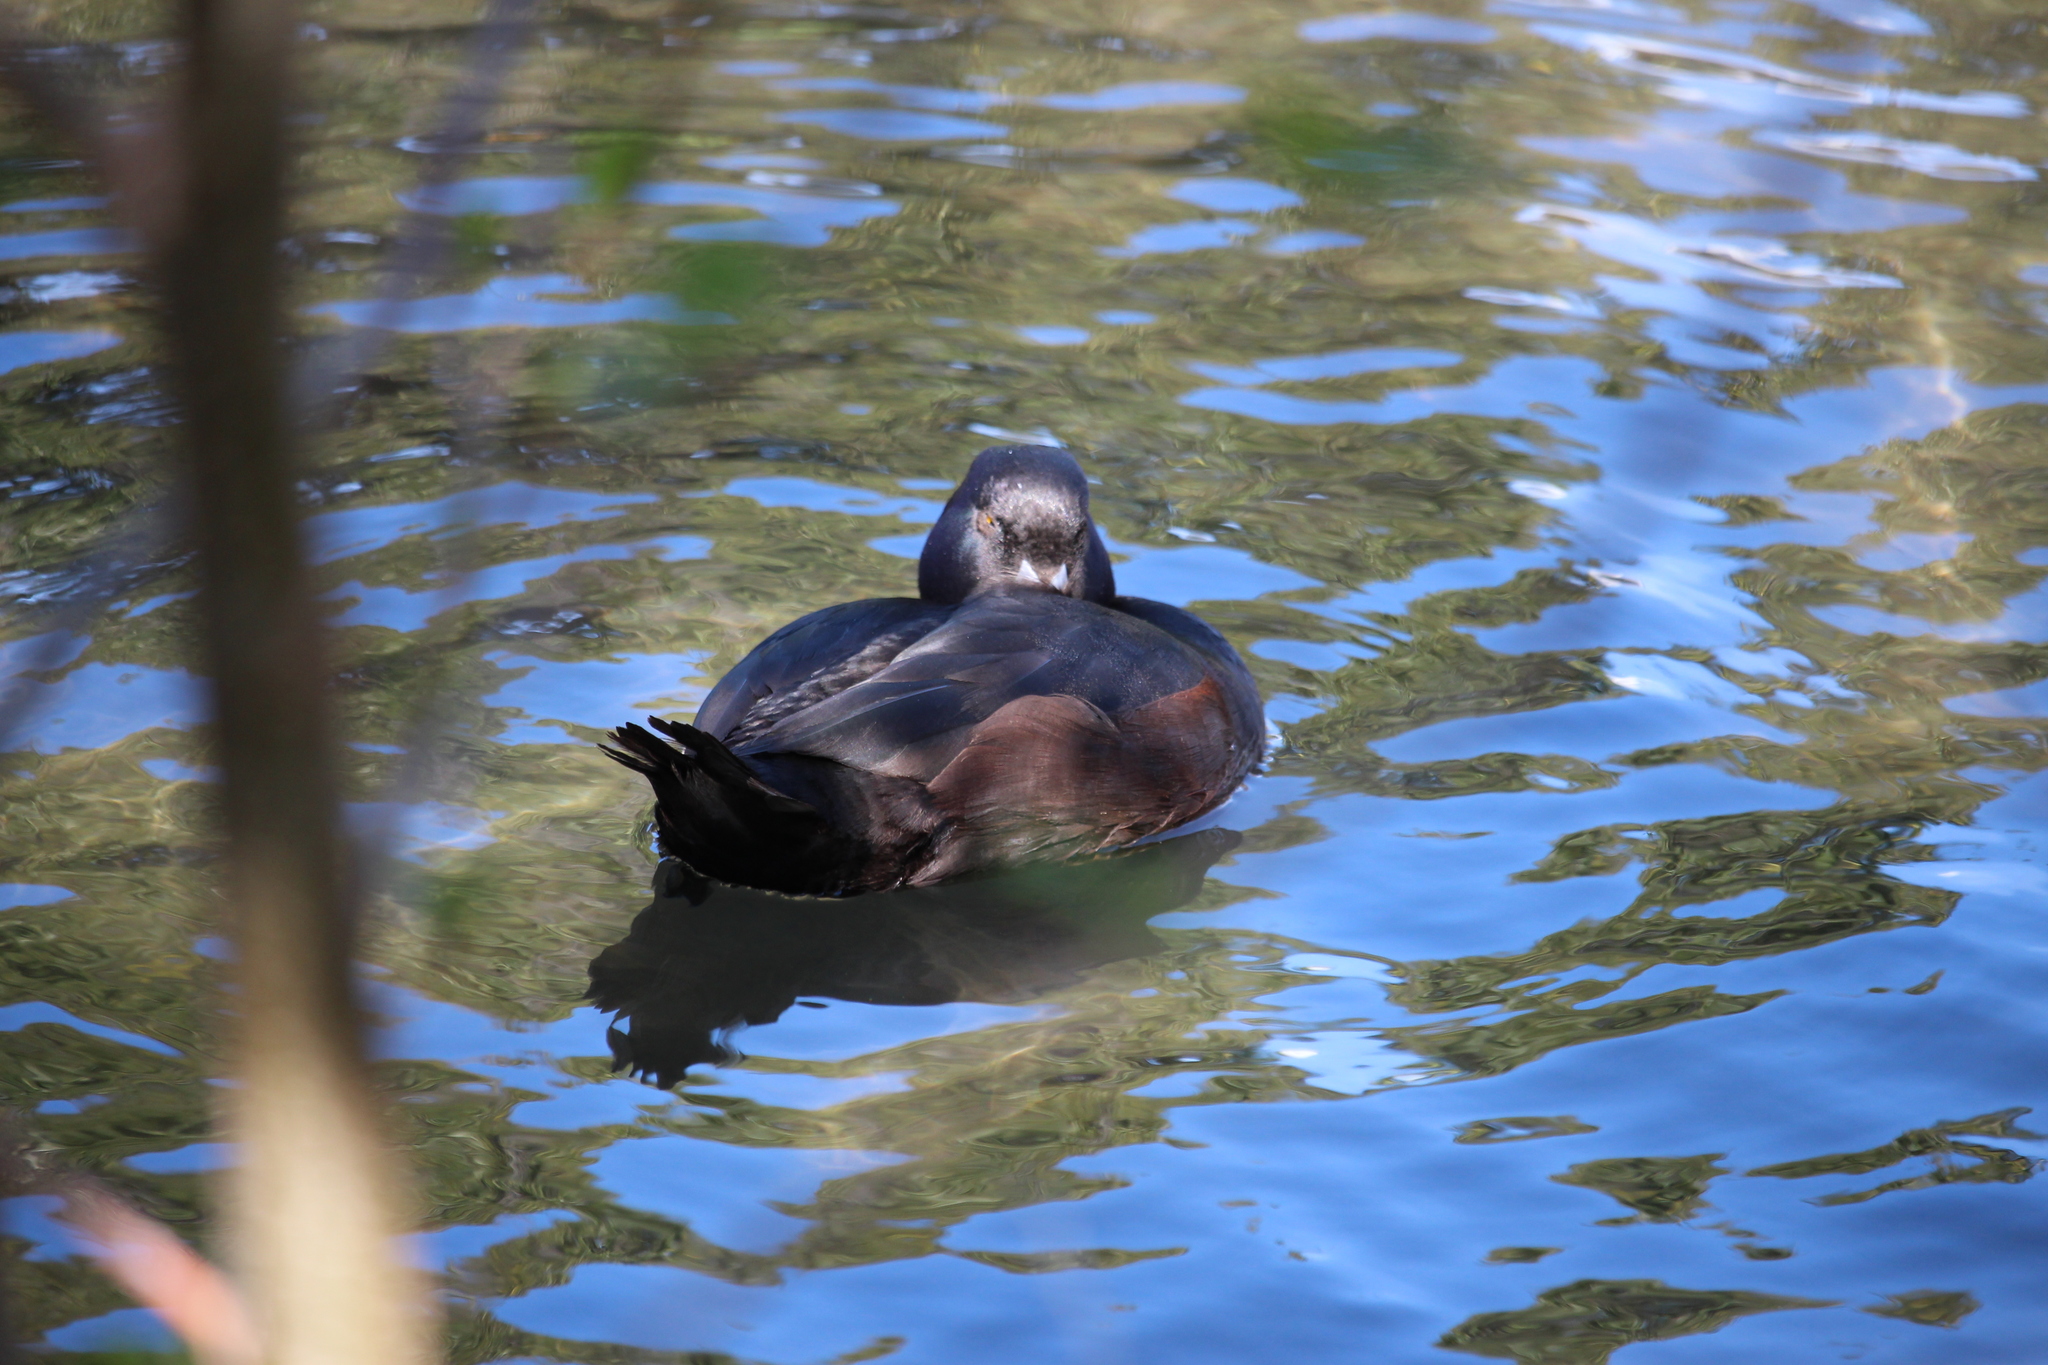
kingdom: Animalia
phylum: Chordata
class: Aves
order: Anseriformes
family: Anatidae
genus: Aythya
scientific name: Aythya novaeseelandiae
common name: New zealand scaup
